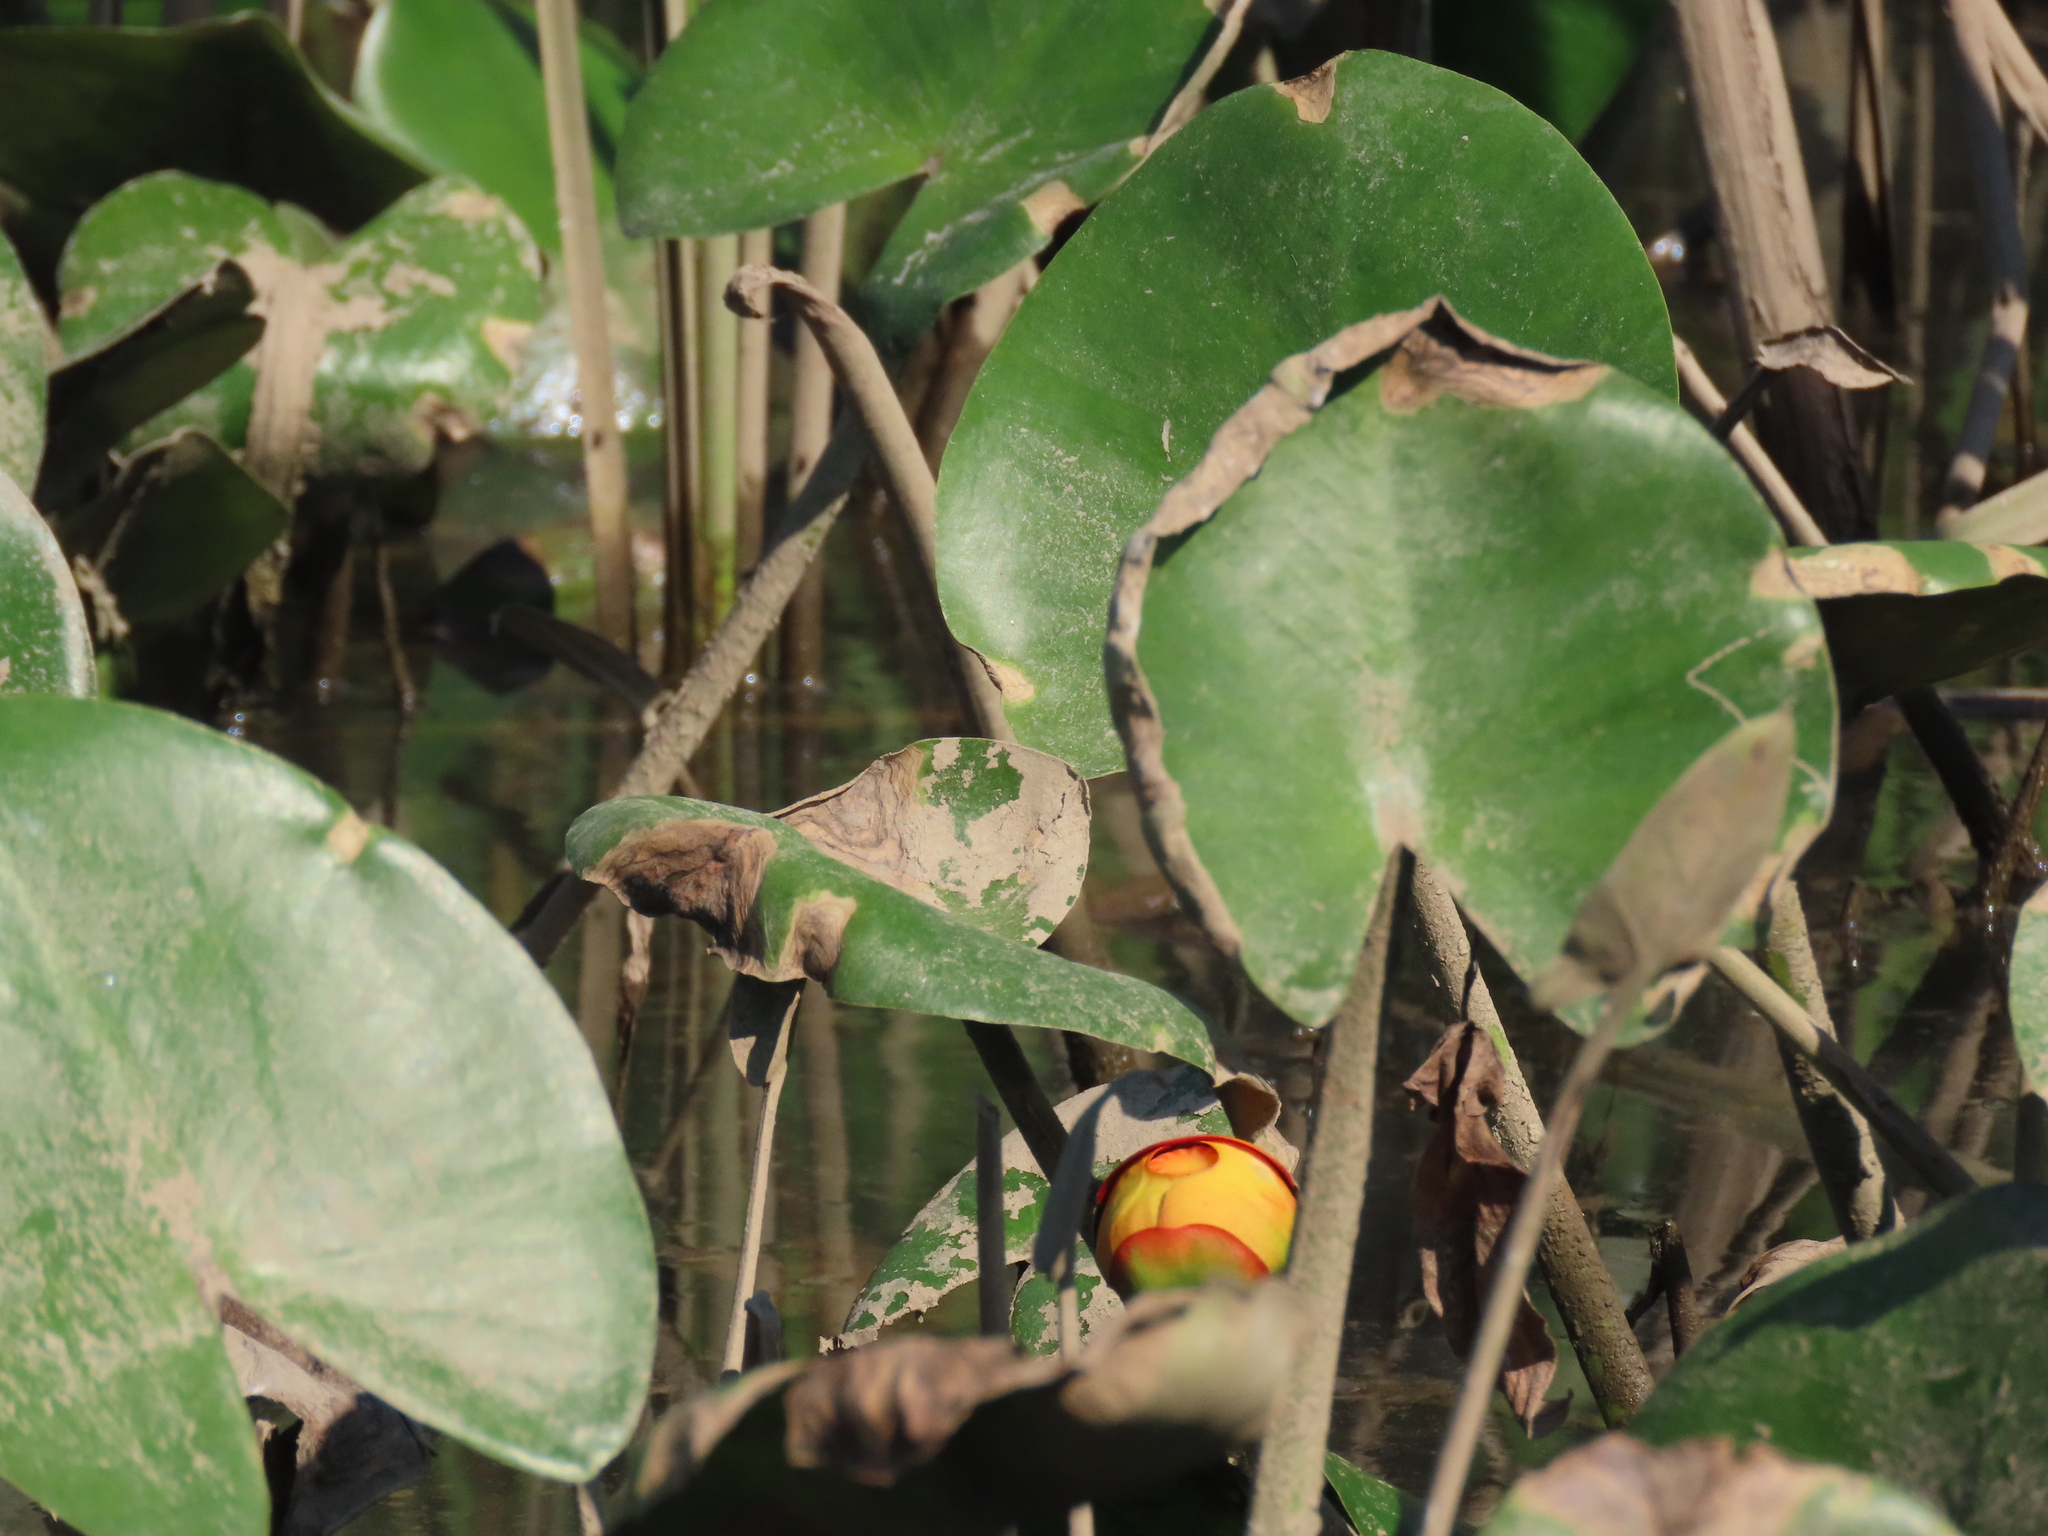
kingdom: Plantae
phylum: Tracheophyta
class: Magnoliopsida
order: Nymphaeales
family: Nymphaeaceae
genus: Nuphar
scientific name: Nuphar advena
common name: Spatter-dock
